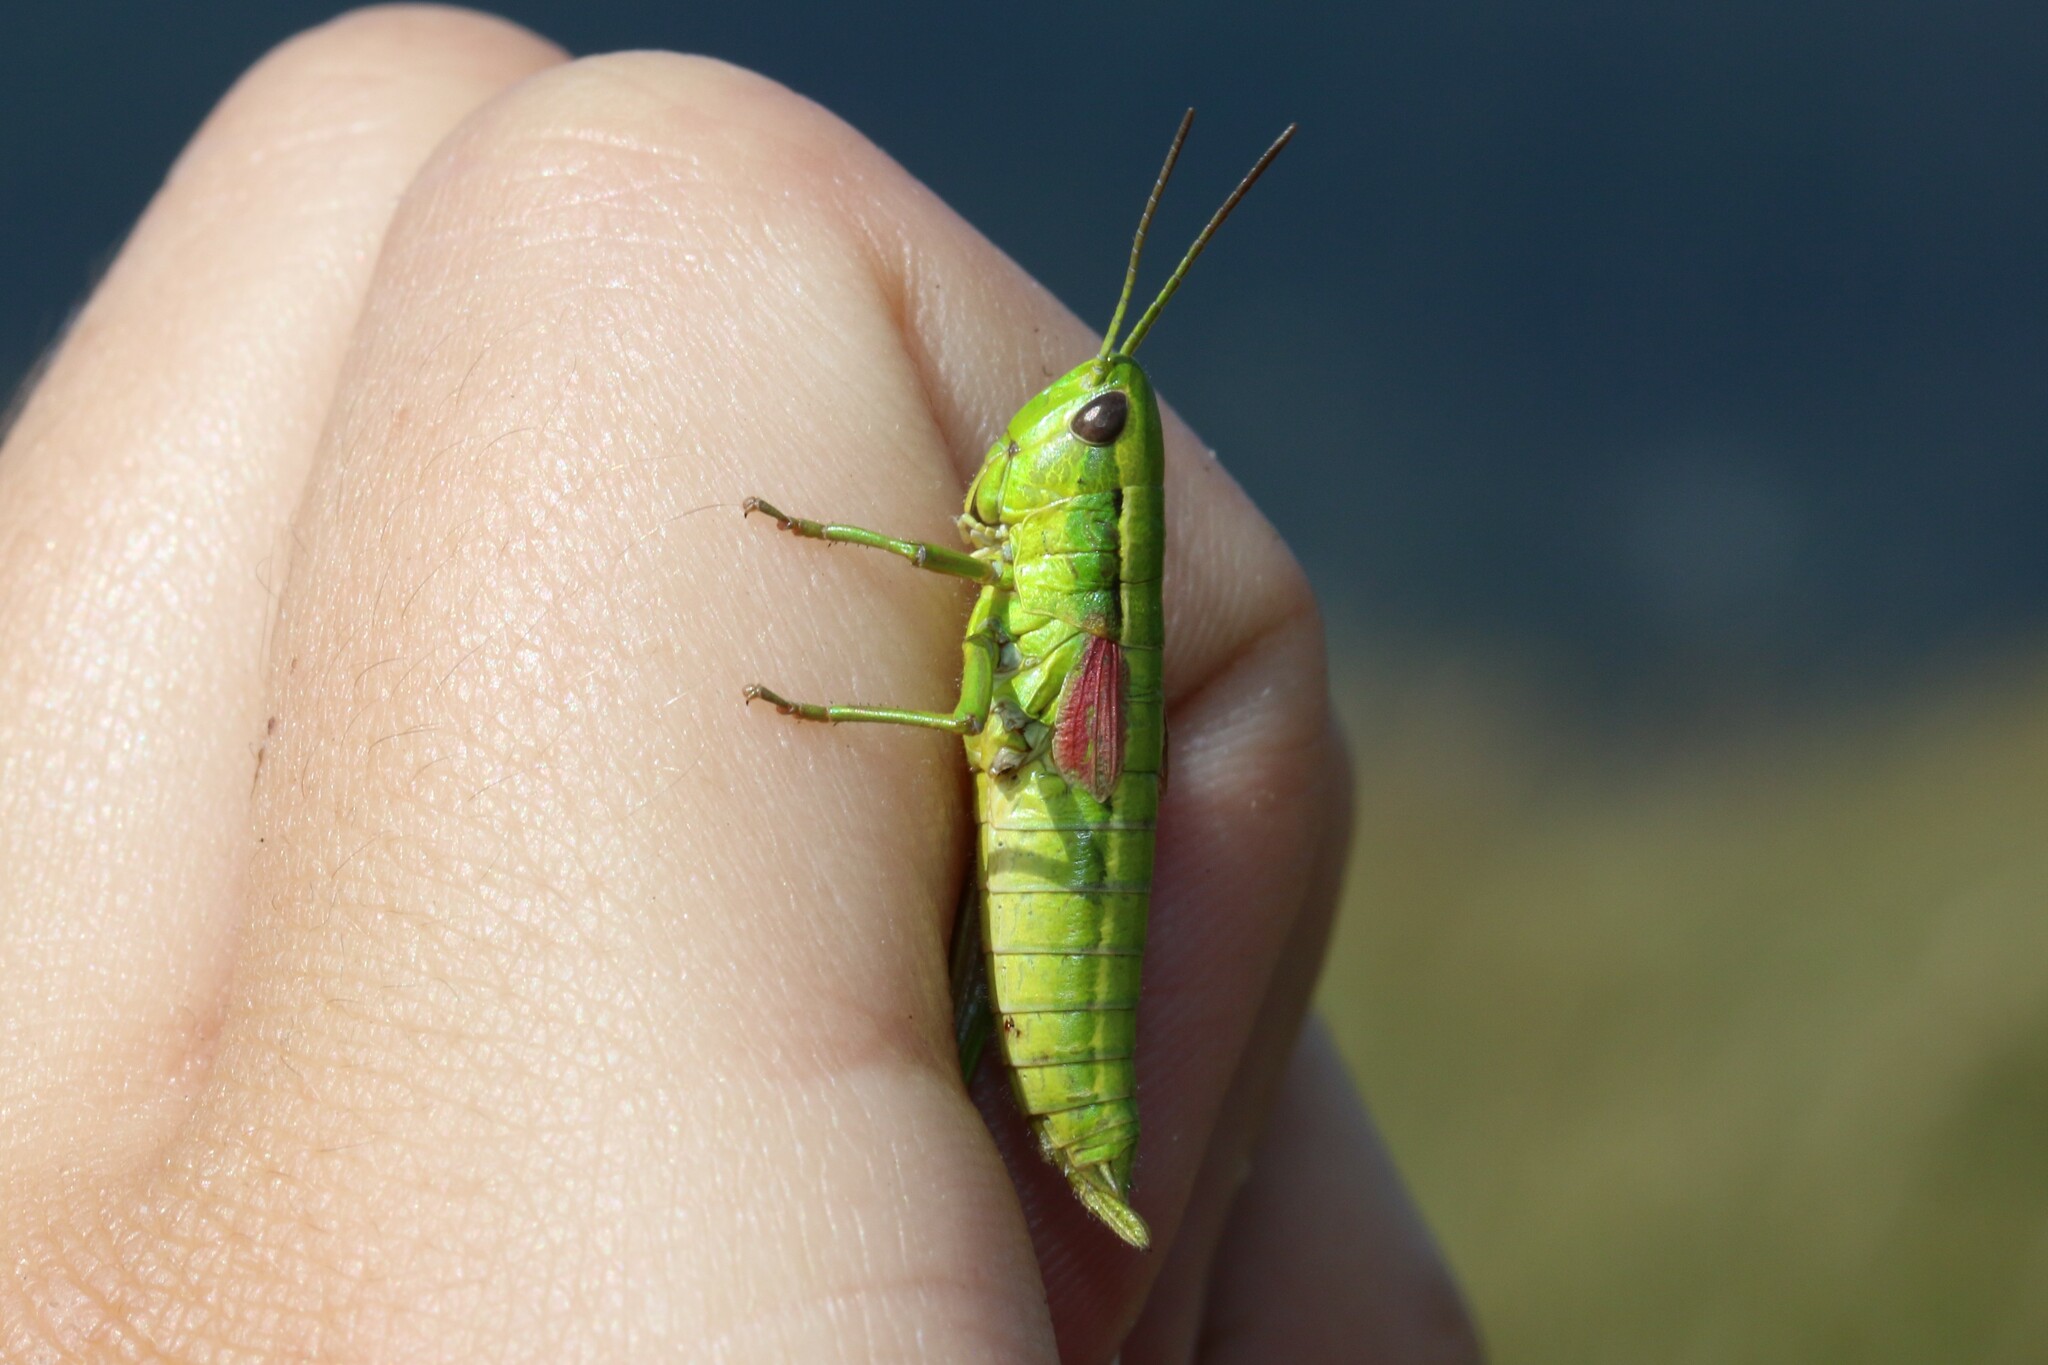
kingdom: Animalia
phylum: Arthropoda
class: Insecta
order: Orthoptera
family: Acrididae
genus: Euthystira
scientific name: Euthystira brachyptera
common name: Small gold grasshopper
